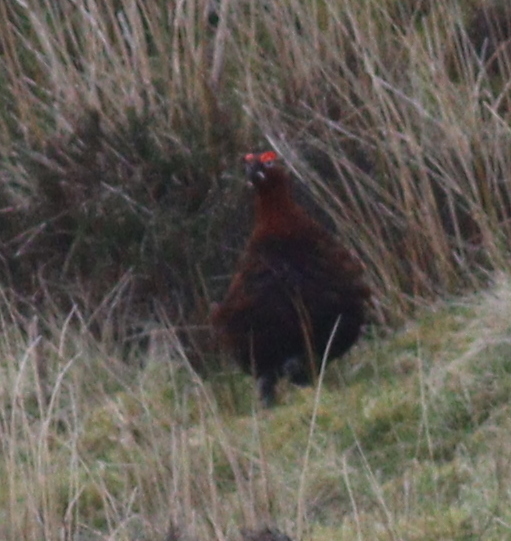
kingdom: Animalia
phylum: Chordata
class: Aves
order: Galliformes
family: Phasianidae
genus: Lagopus
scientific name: Lagopus lagopus
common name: Willow ptarmigan
